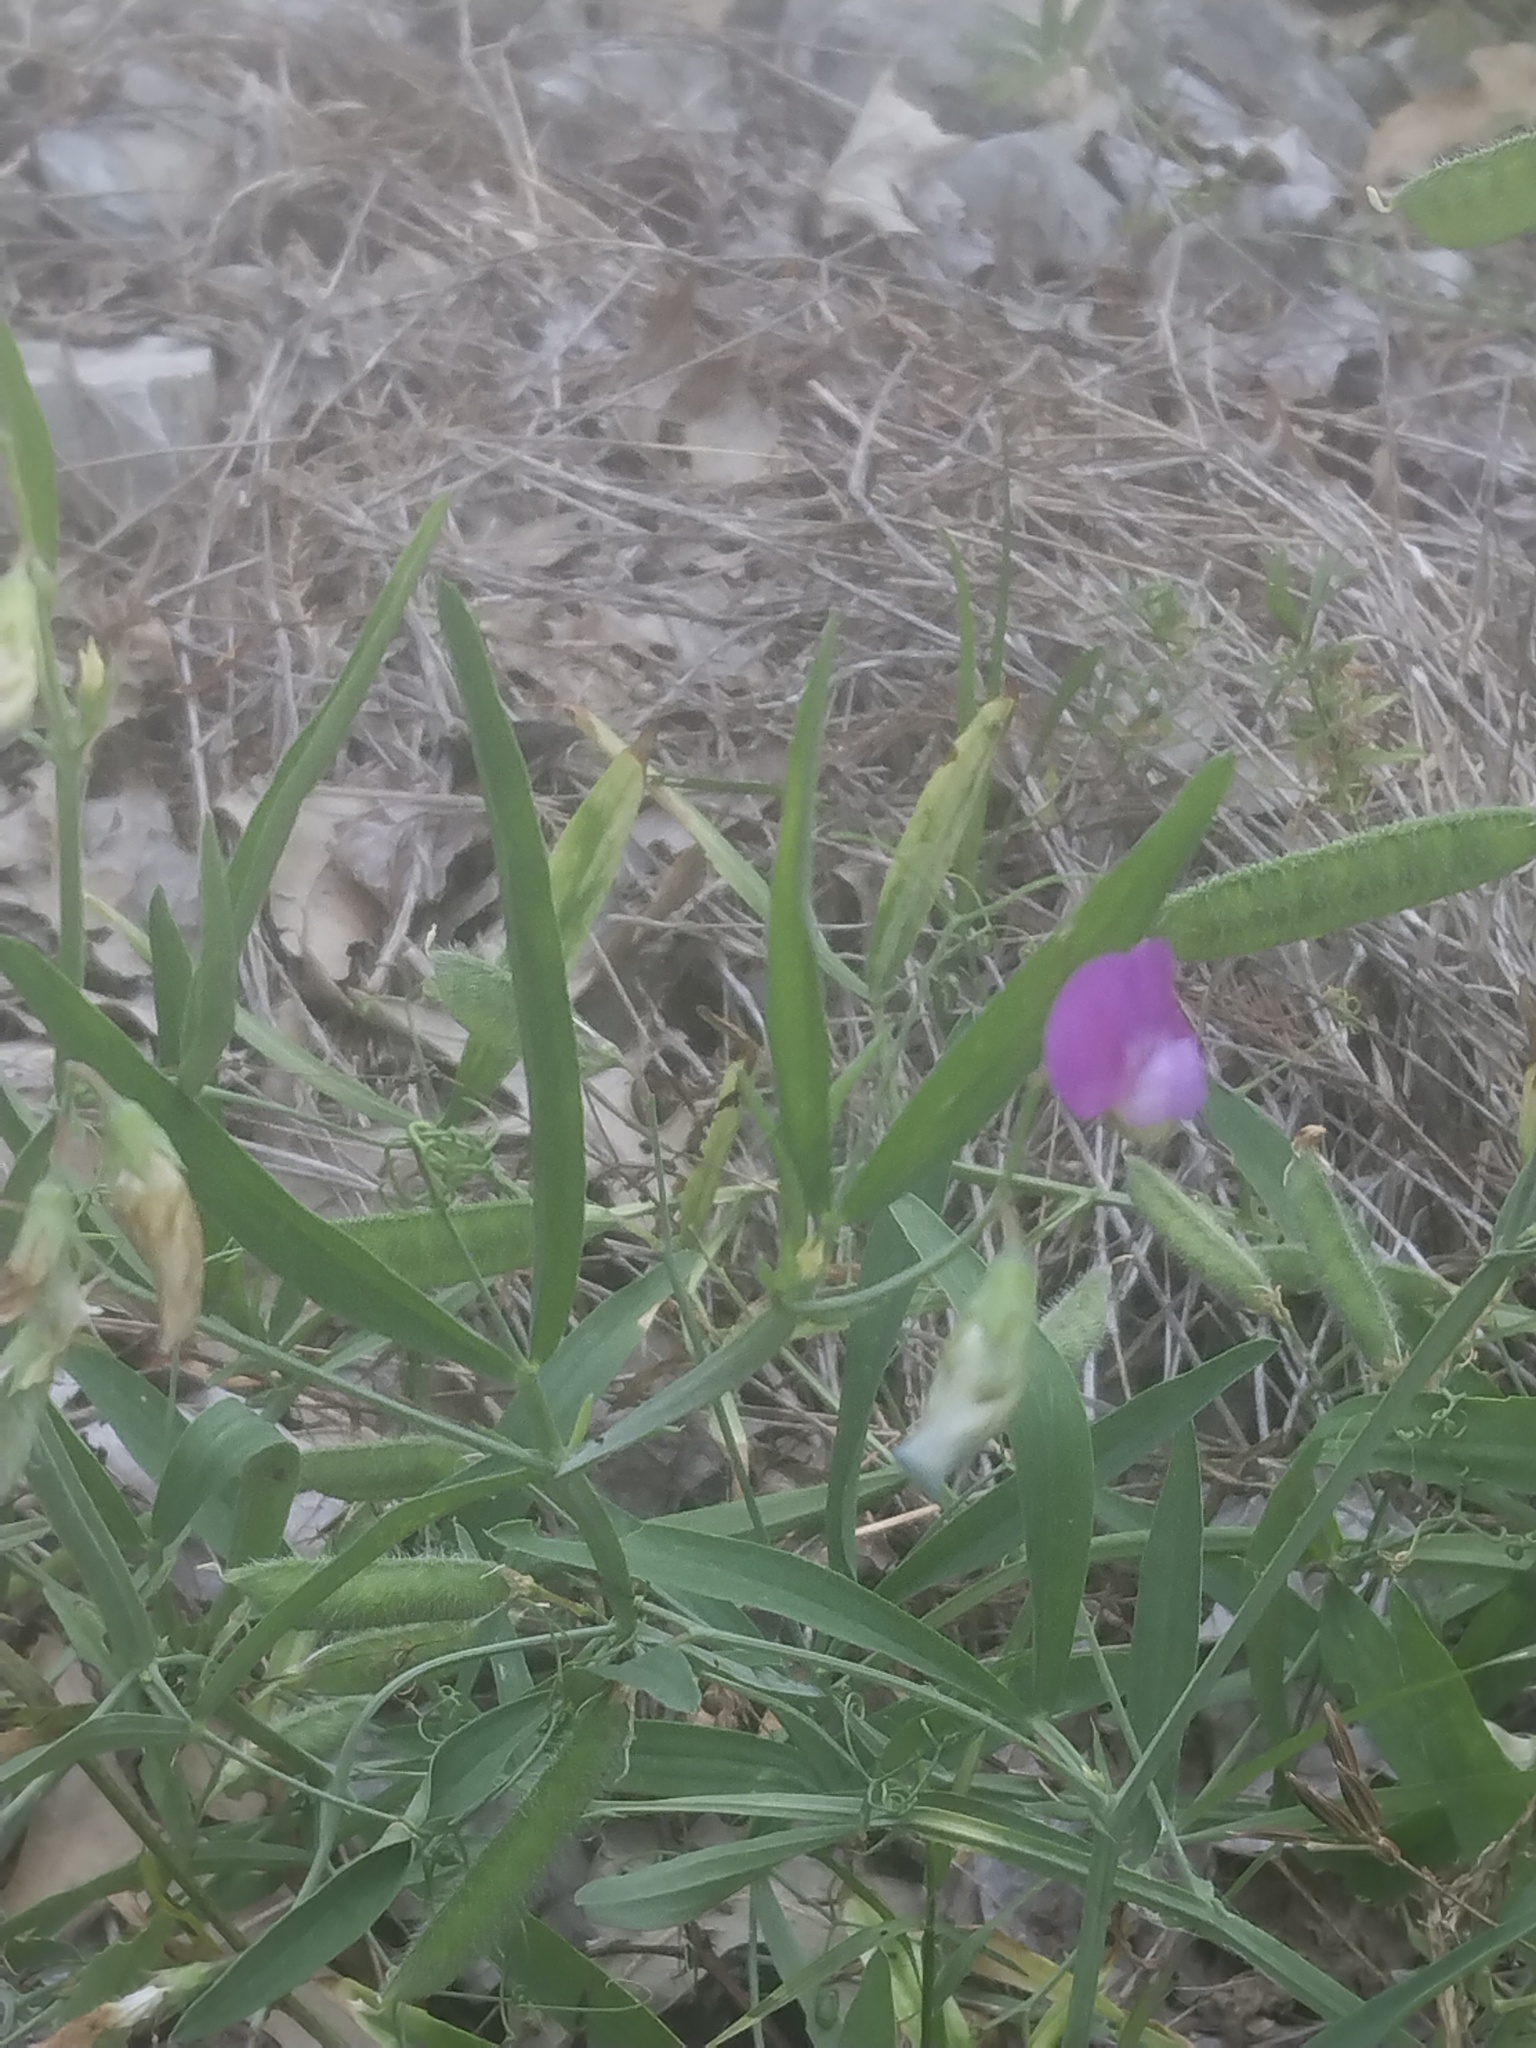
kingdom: Plantae
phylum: Tracheophyta
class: Magnoliopsida
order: Fabales
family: Fabaceae
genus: Lathyrus
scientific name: Lathyrus hirsutus
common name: Hairy vetchling
